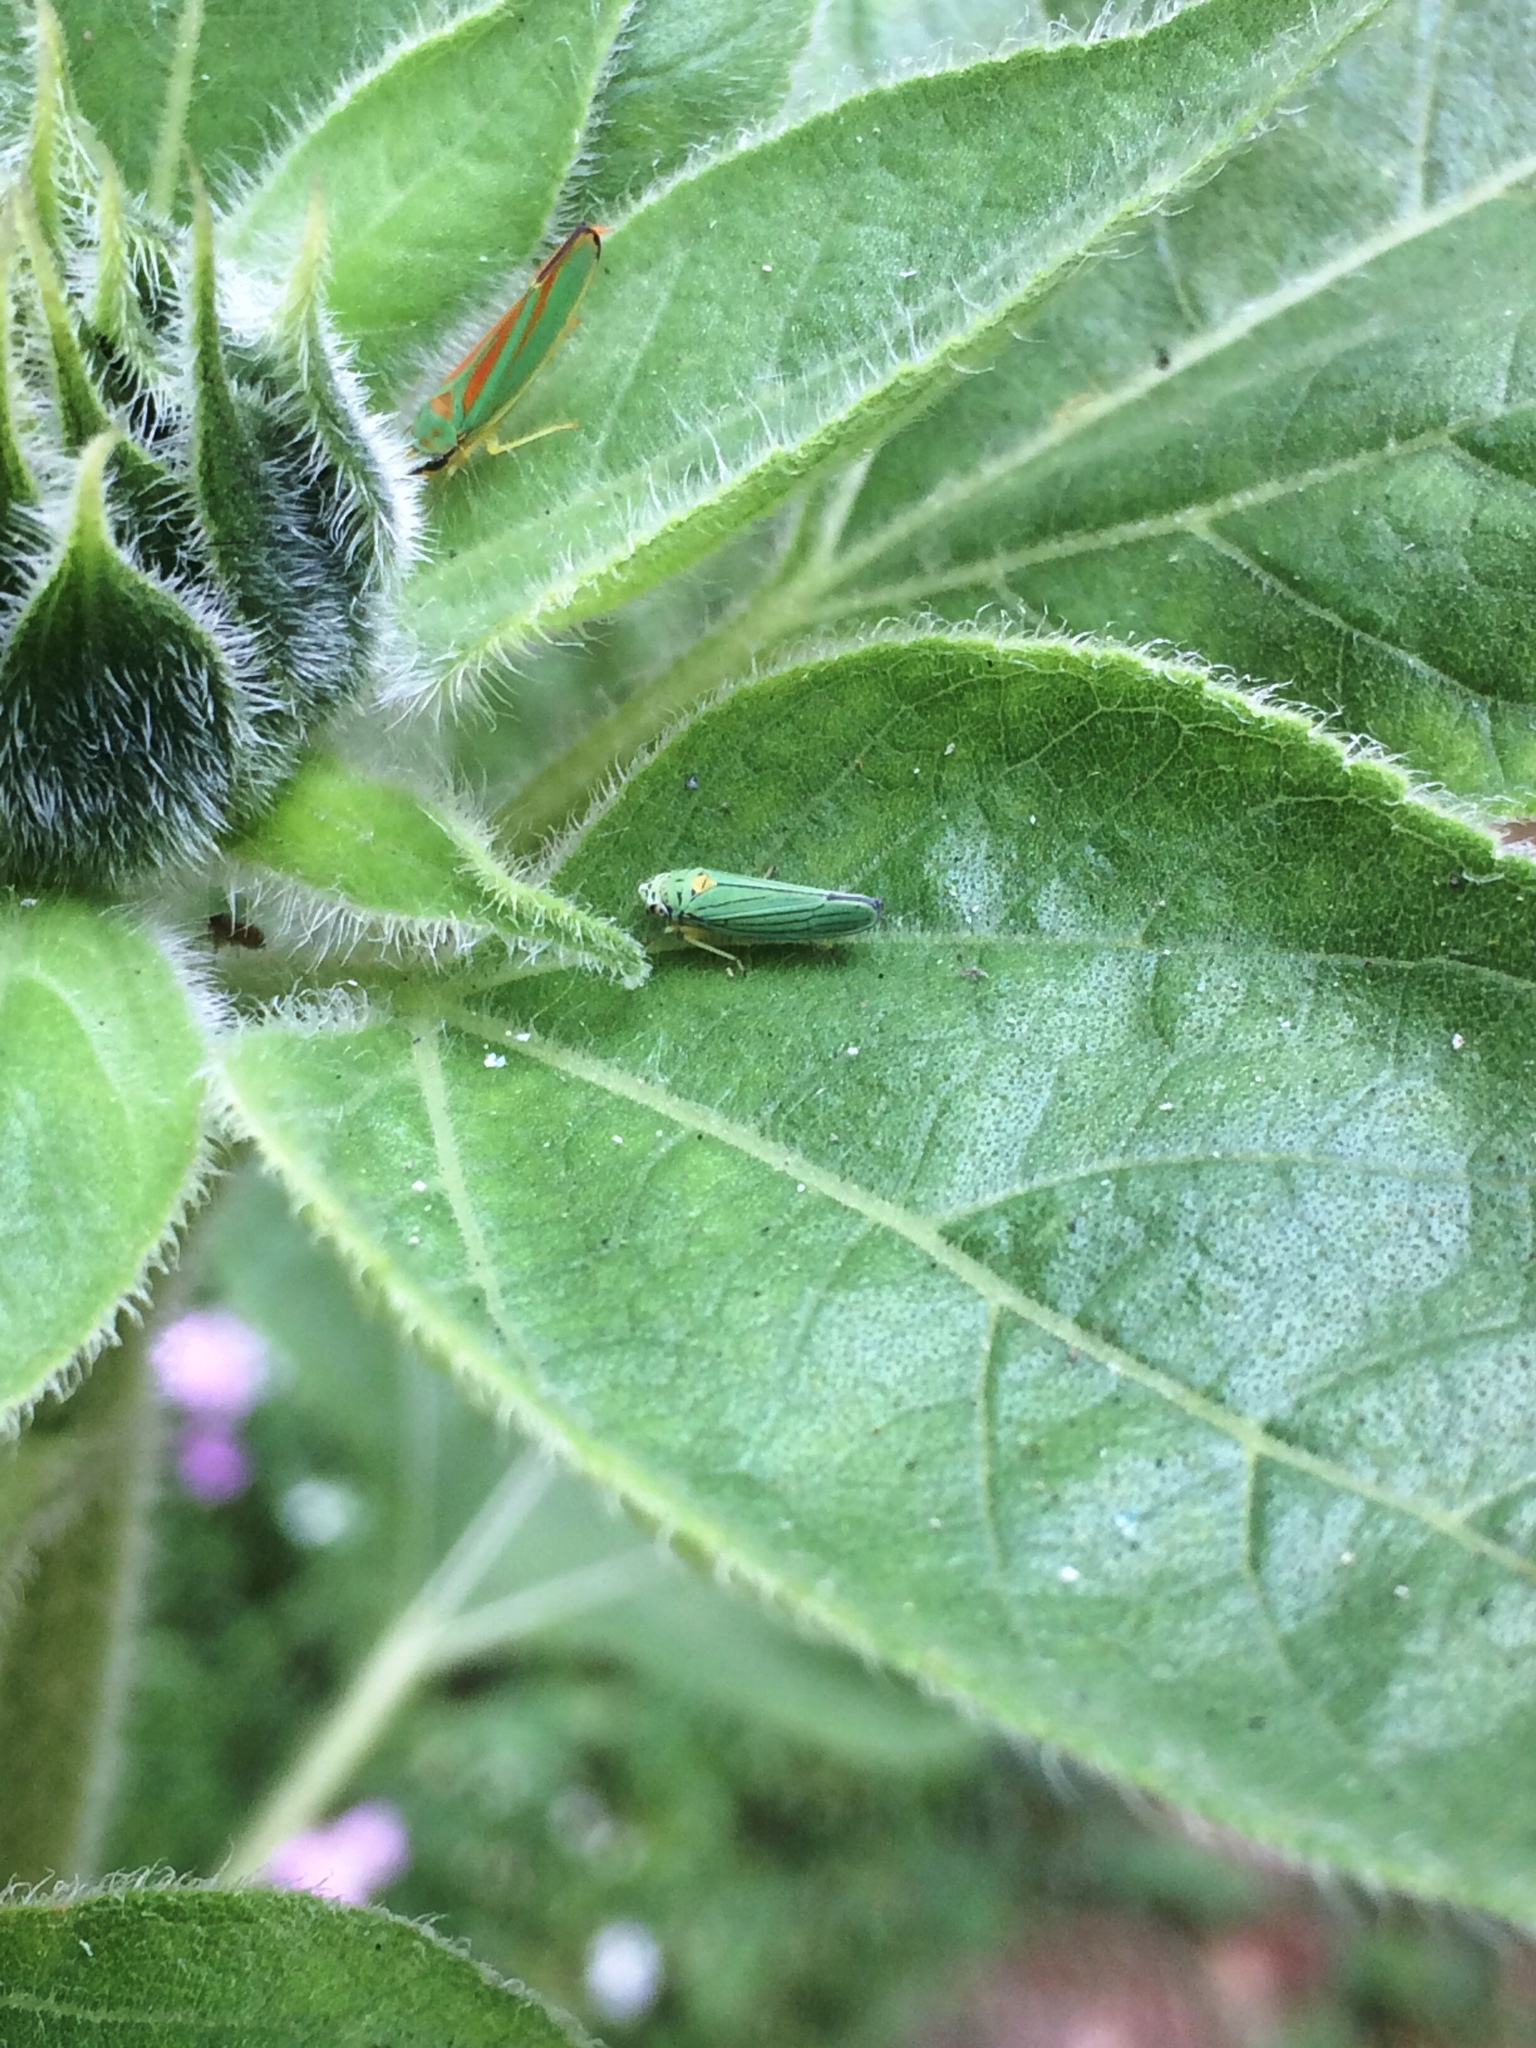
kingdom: Animalia
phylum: Arthropoda
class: Insecta
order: Hemiptera
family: Cicadellidae
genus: Graphocephala
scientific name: Graphocephala atropunctata
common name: Blue-green sharpshooter
